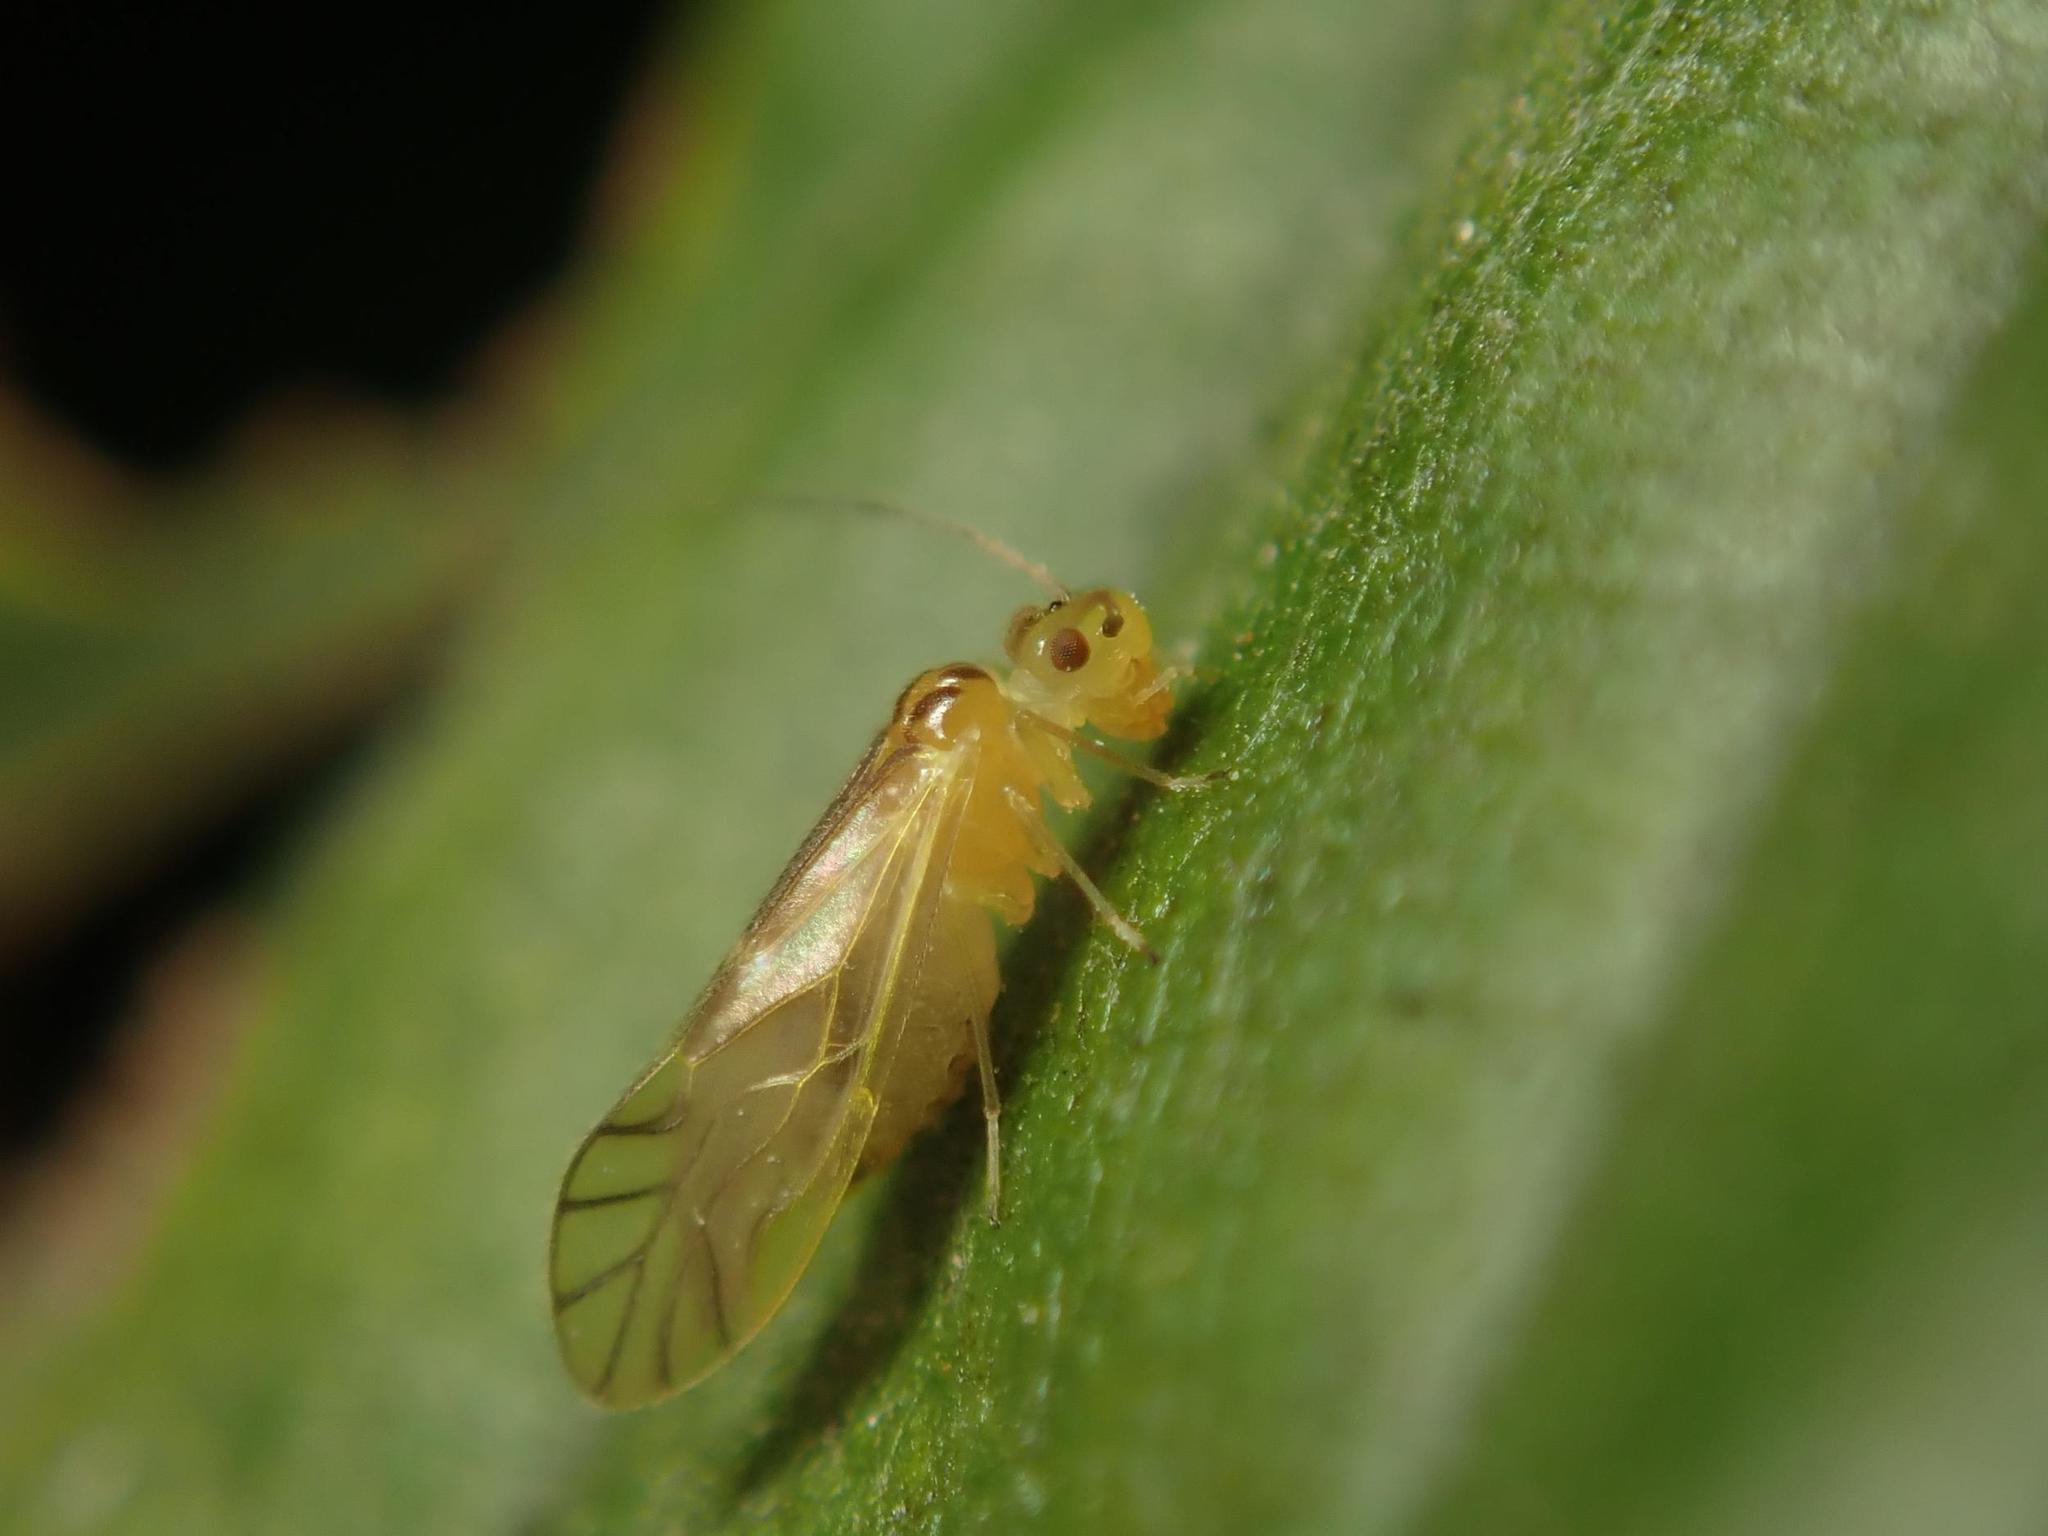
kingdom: Animalia
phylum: Arthropoda
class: Insecta
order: Psocodea
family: Caeciliusidae
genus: Valenzuela
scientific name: Valenzuela flavidus
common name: Yellow barklouse
